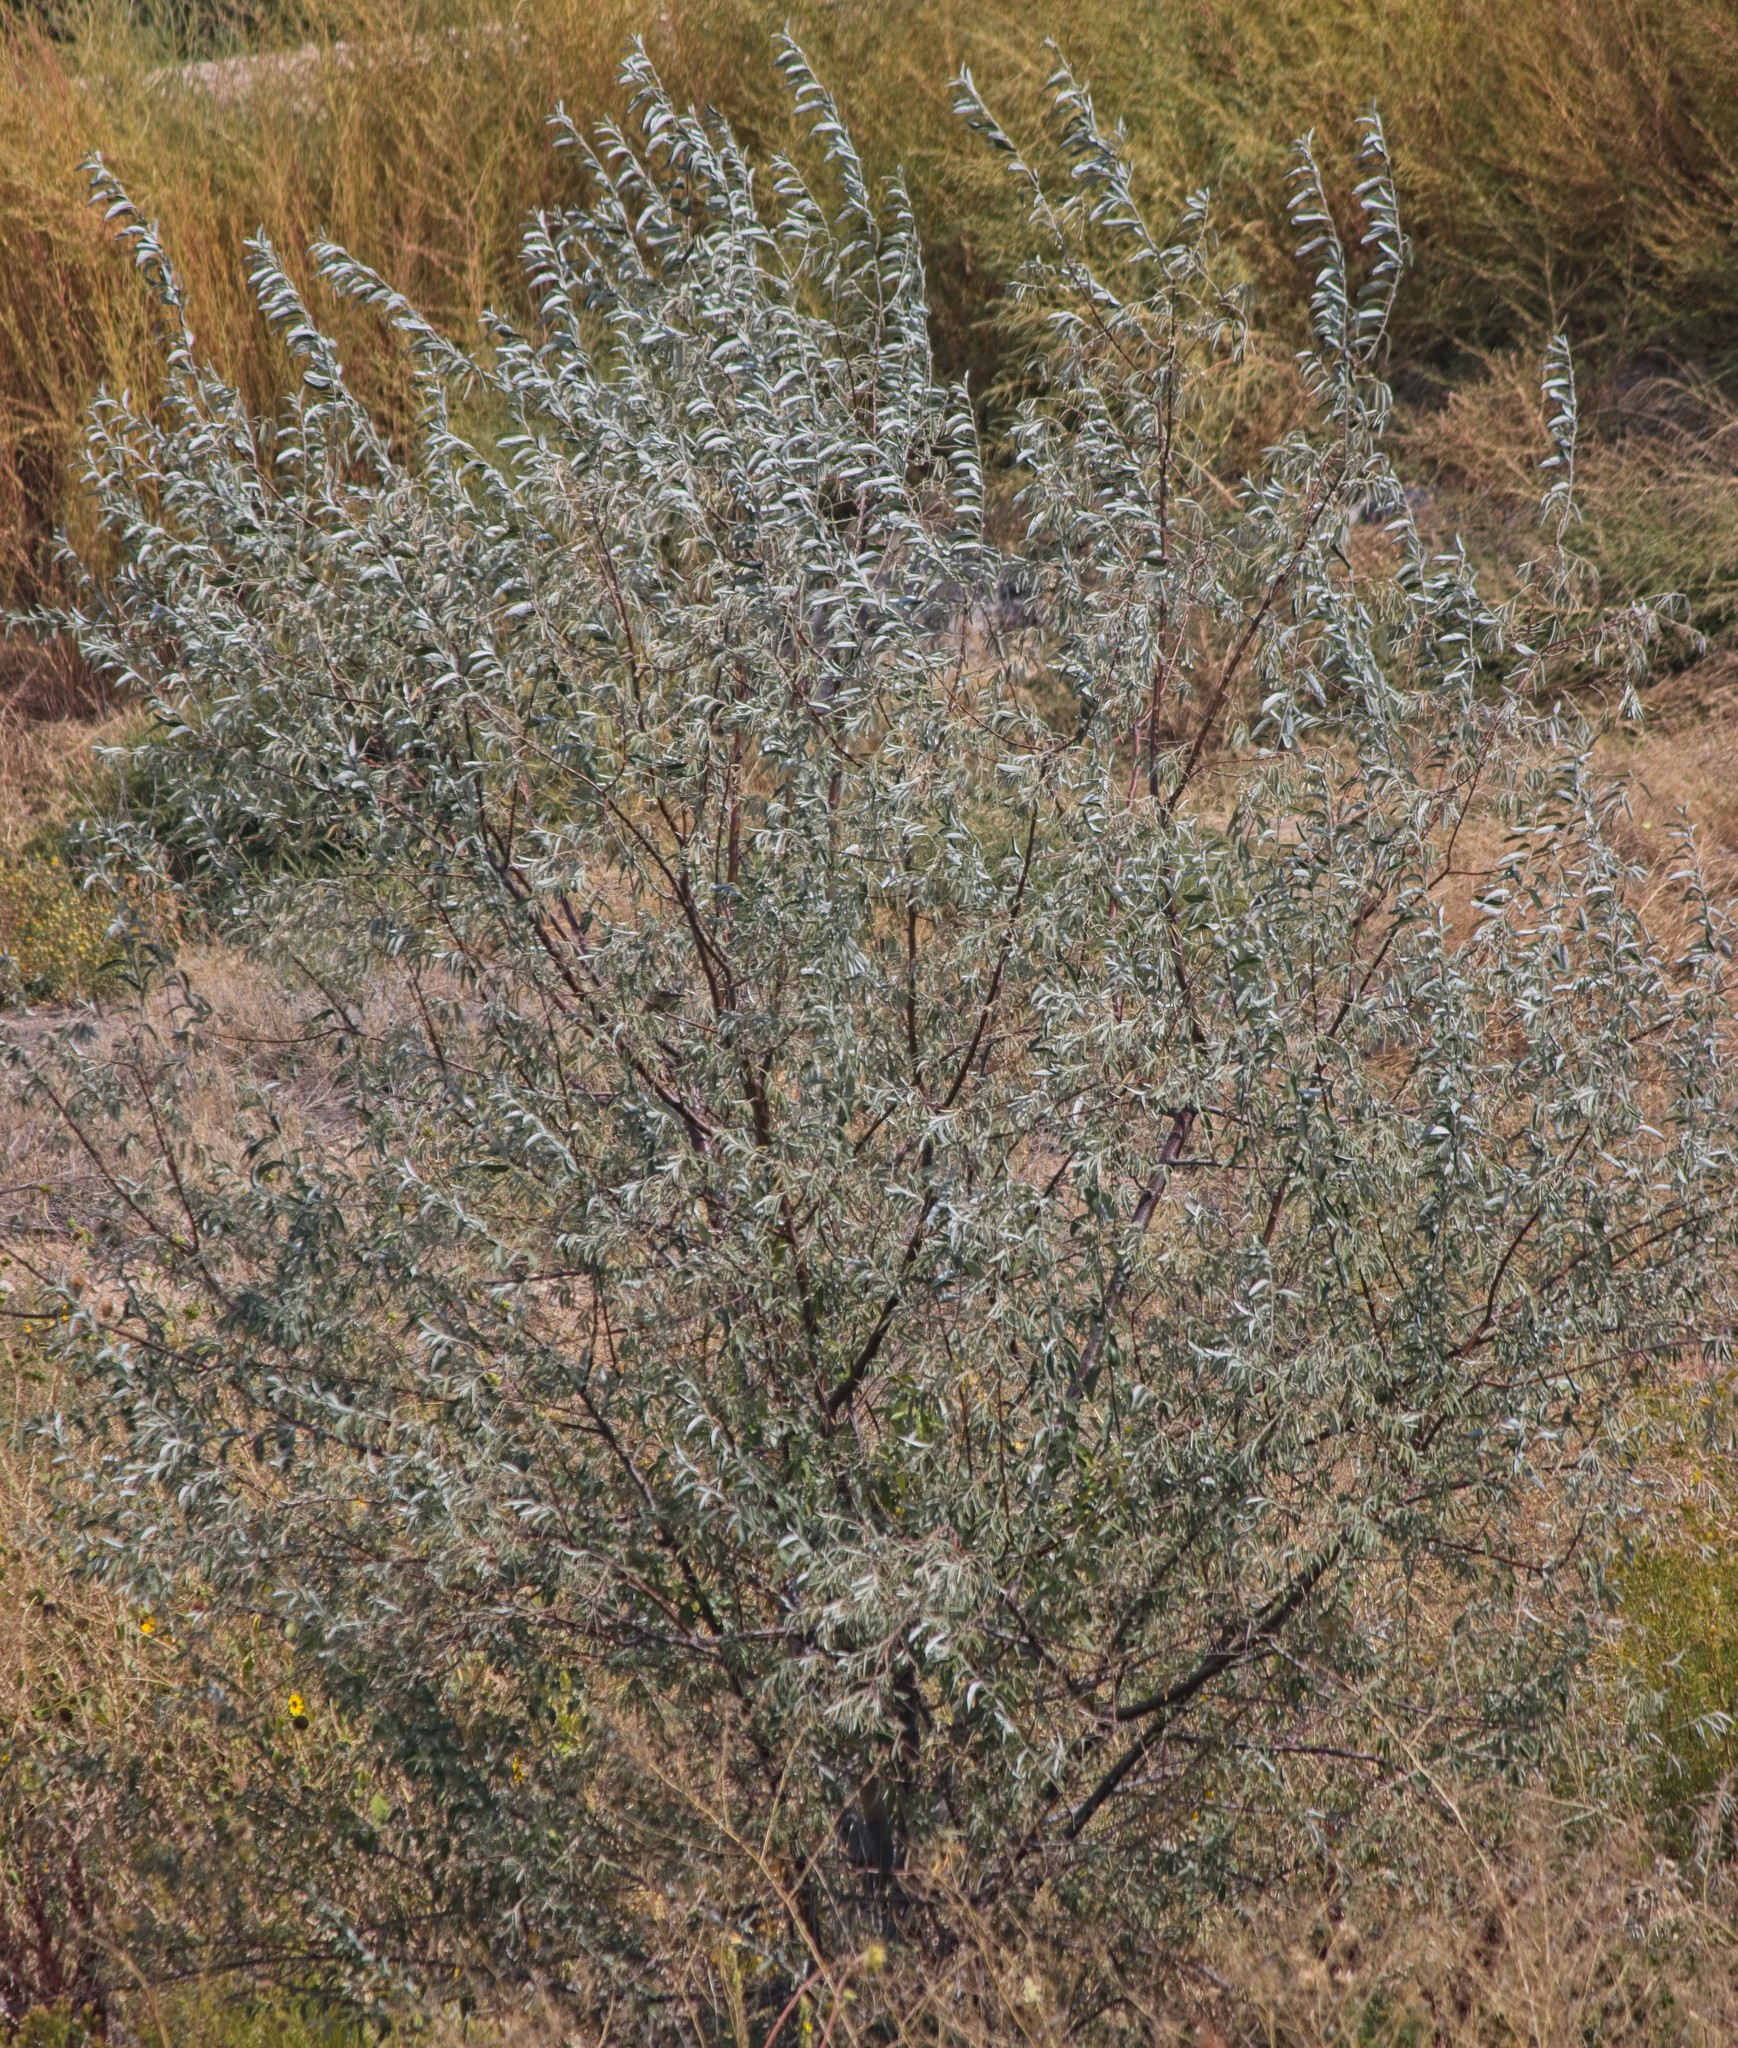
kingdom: Plantae
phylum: Tracheophyta
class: Magnoliopsida
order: Rosales
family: Elaeagnaceae
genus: Elaeagnus
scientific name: Elaeagnus angustifolia
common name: Russian olive
